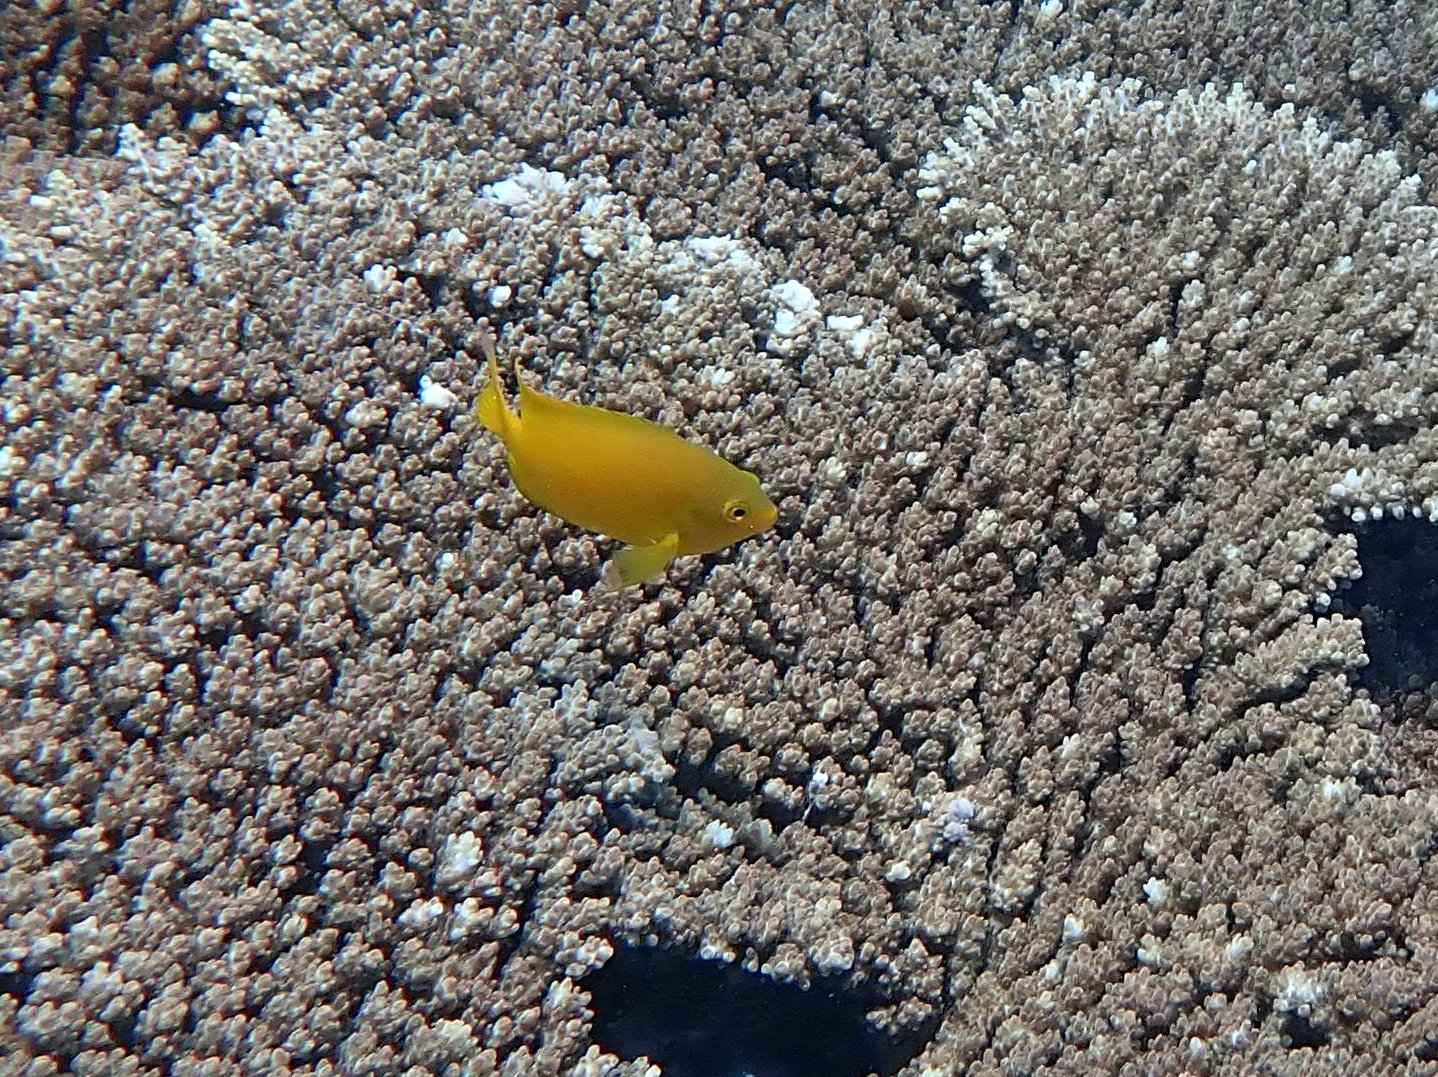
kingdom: Animalia
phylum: Chordata
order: Perciformes
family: Pomacentridae
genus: Pomacentrus
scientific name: Pomacentrus moluccensis
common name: Lemon damsel
